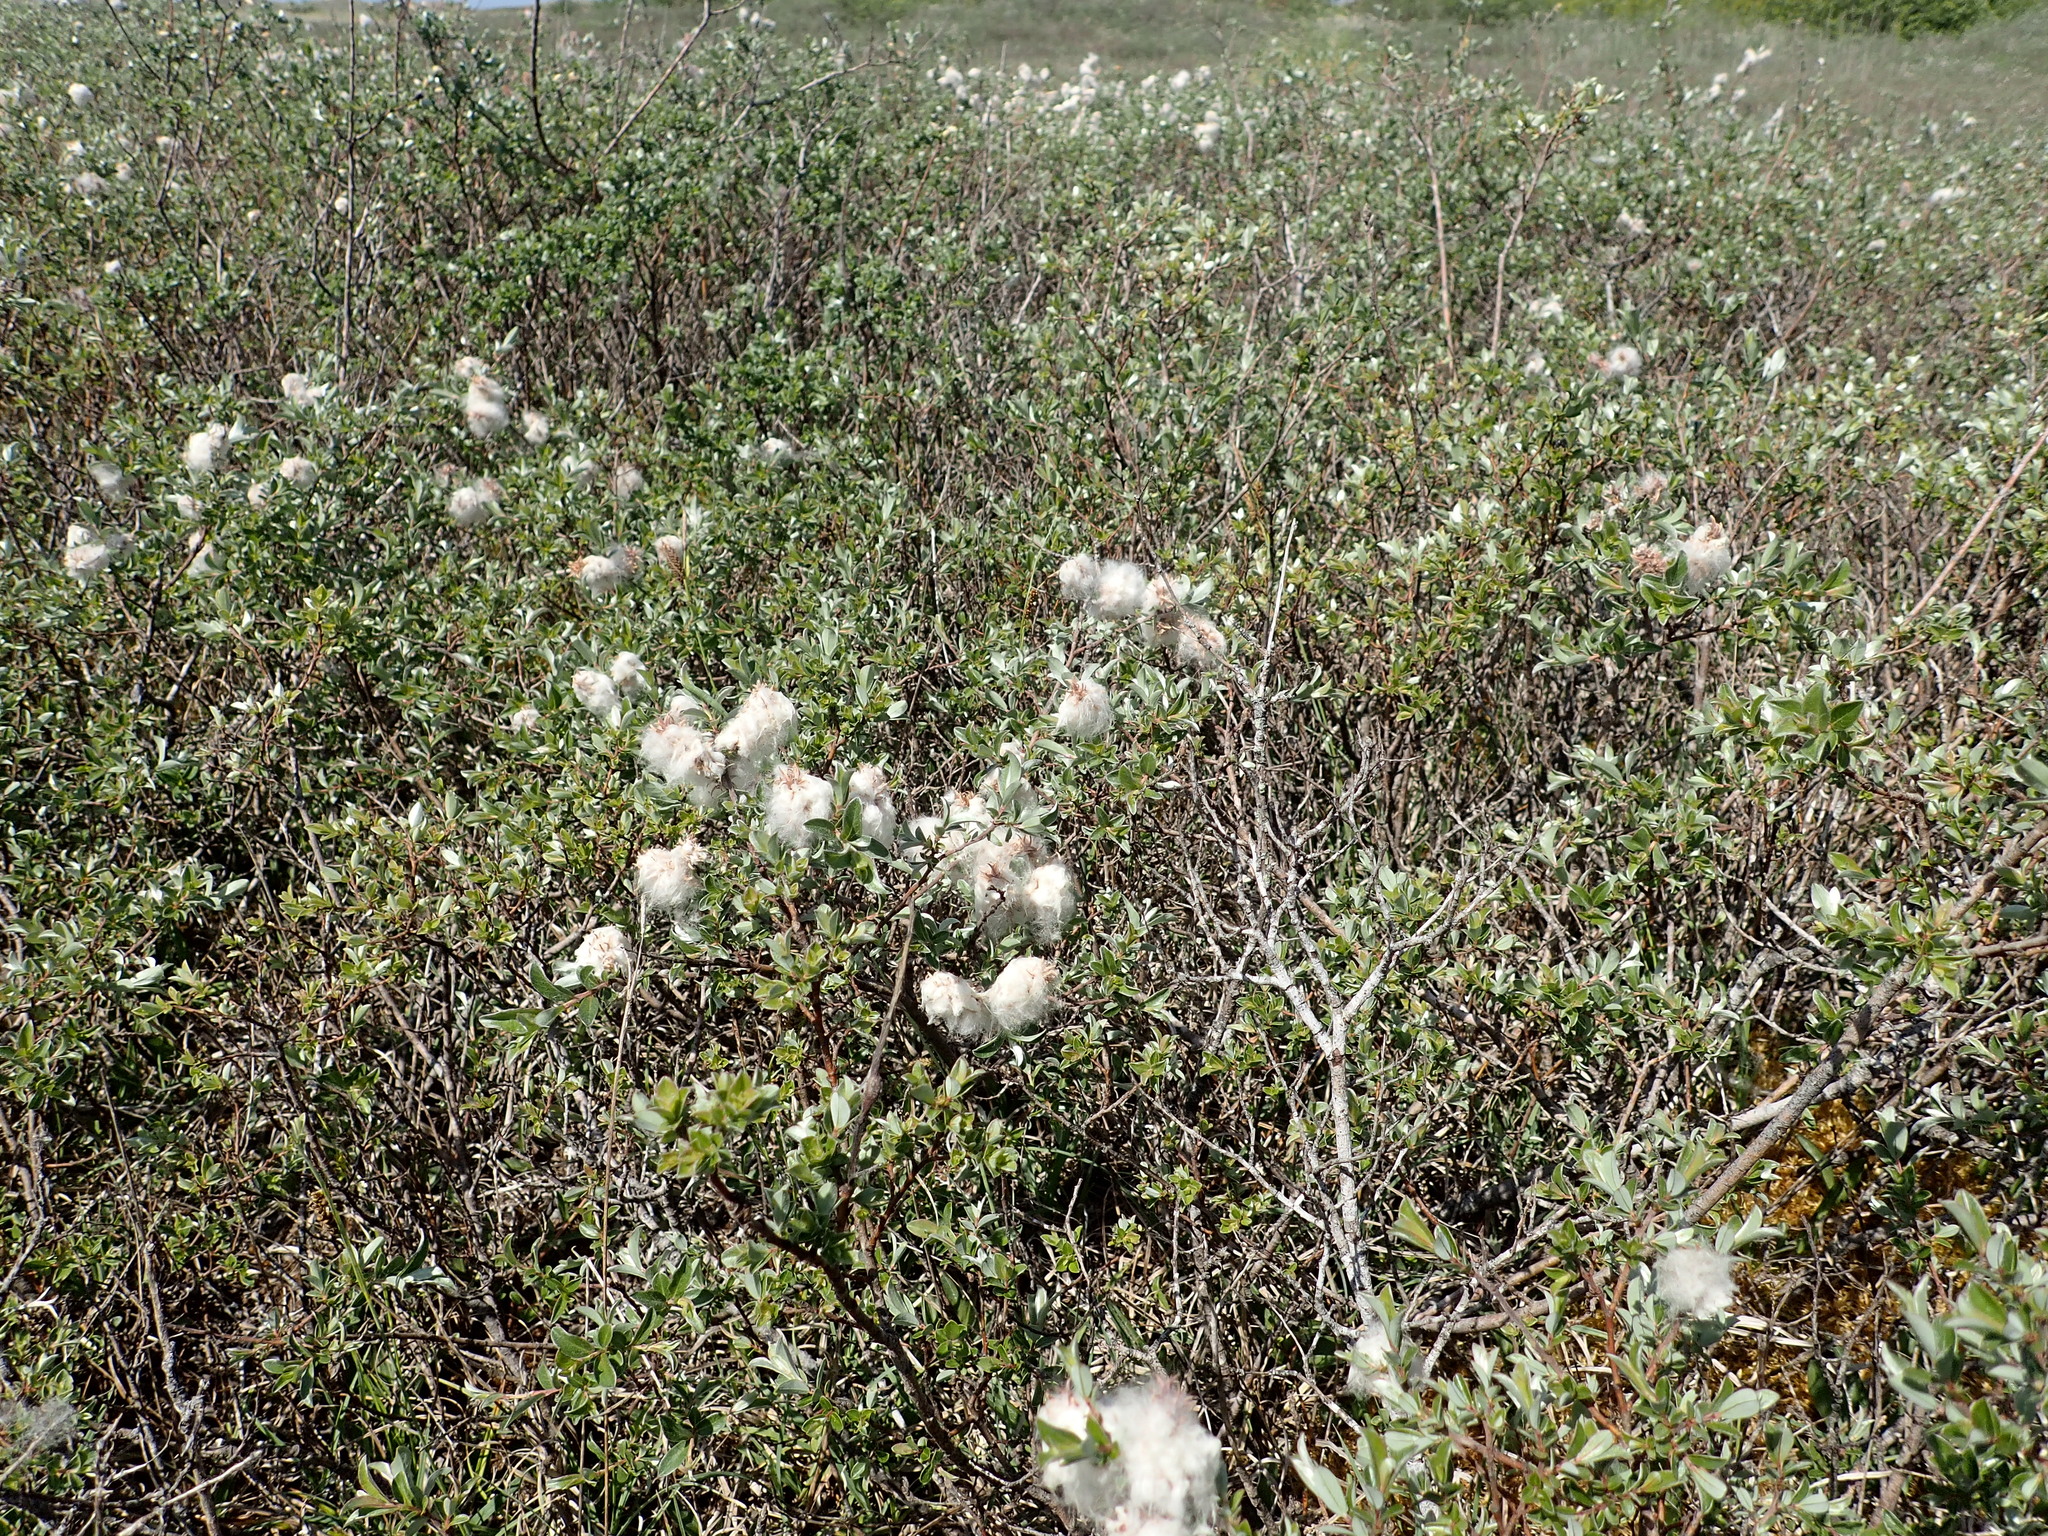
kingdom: Plantae
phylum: Tracheophyta
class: Magnoliopsida
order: Malpighiales
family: Salicaceae
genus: Salix
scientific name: Salix repens
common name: Creeping willow
